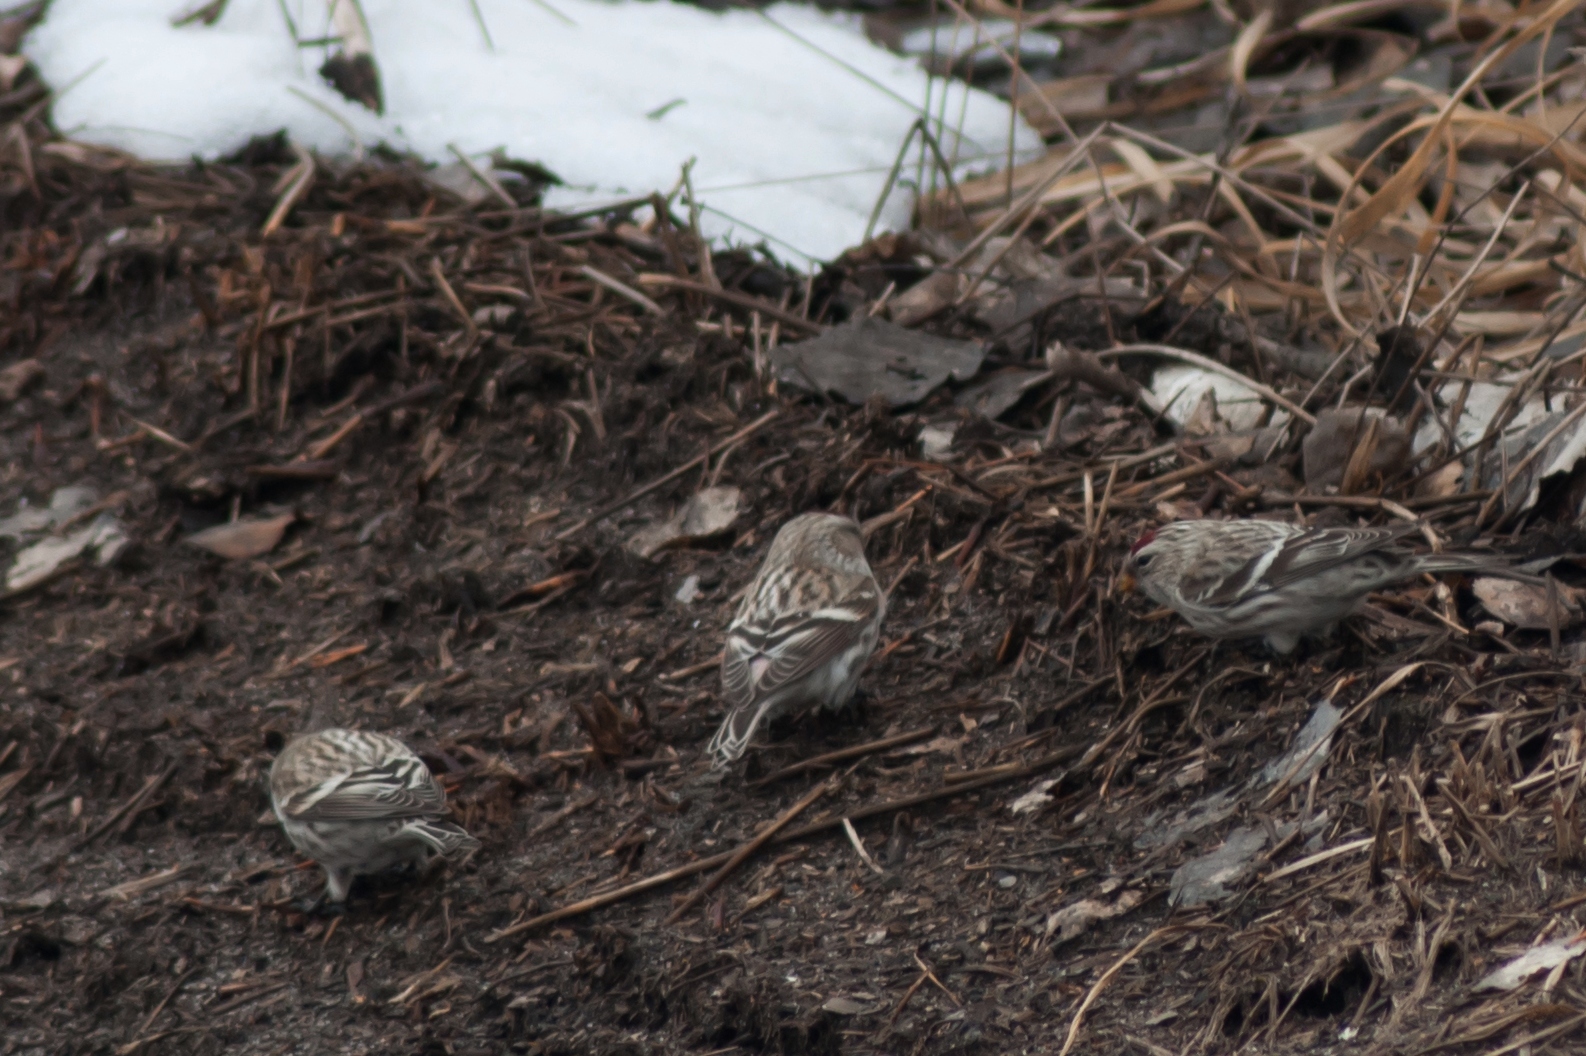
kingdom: Animalia
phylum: Chordata
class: Aves
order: Passeriformes
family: Fringillidae
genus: Acanthis
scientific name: Acanthis flammea
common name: Common redpoll
